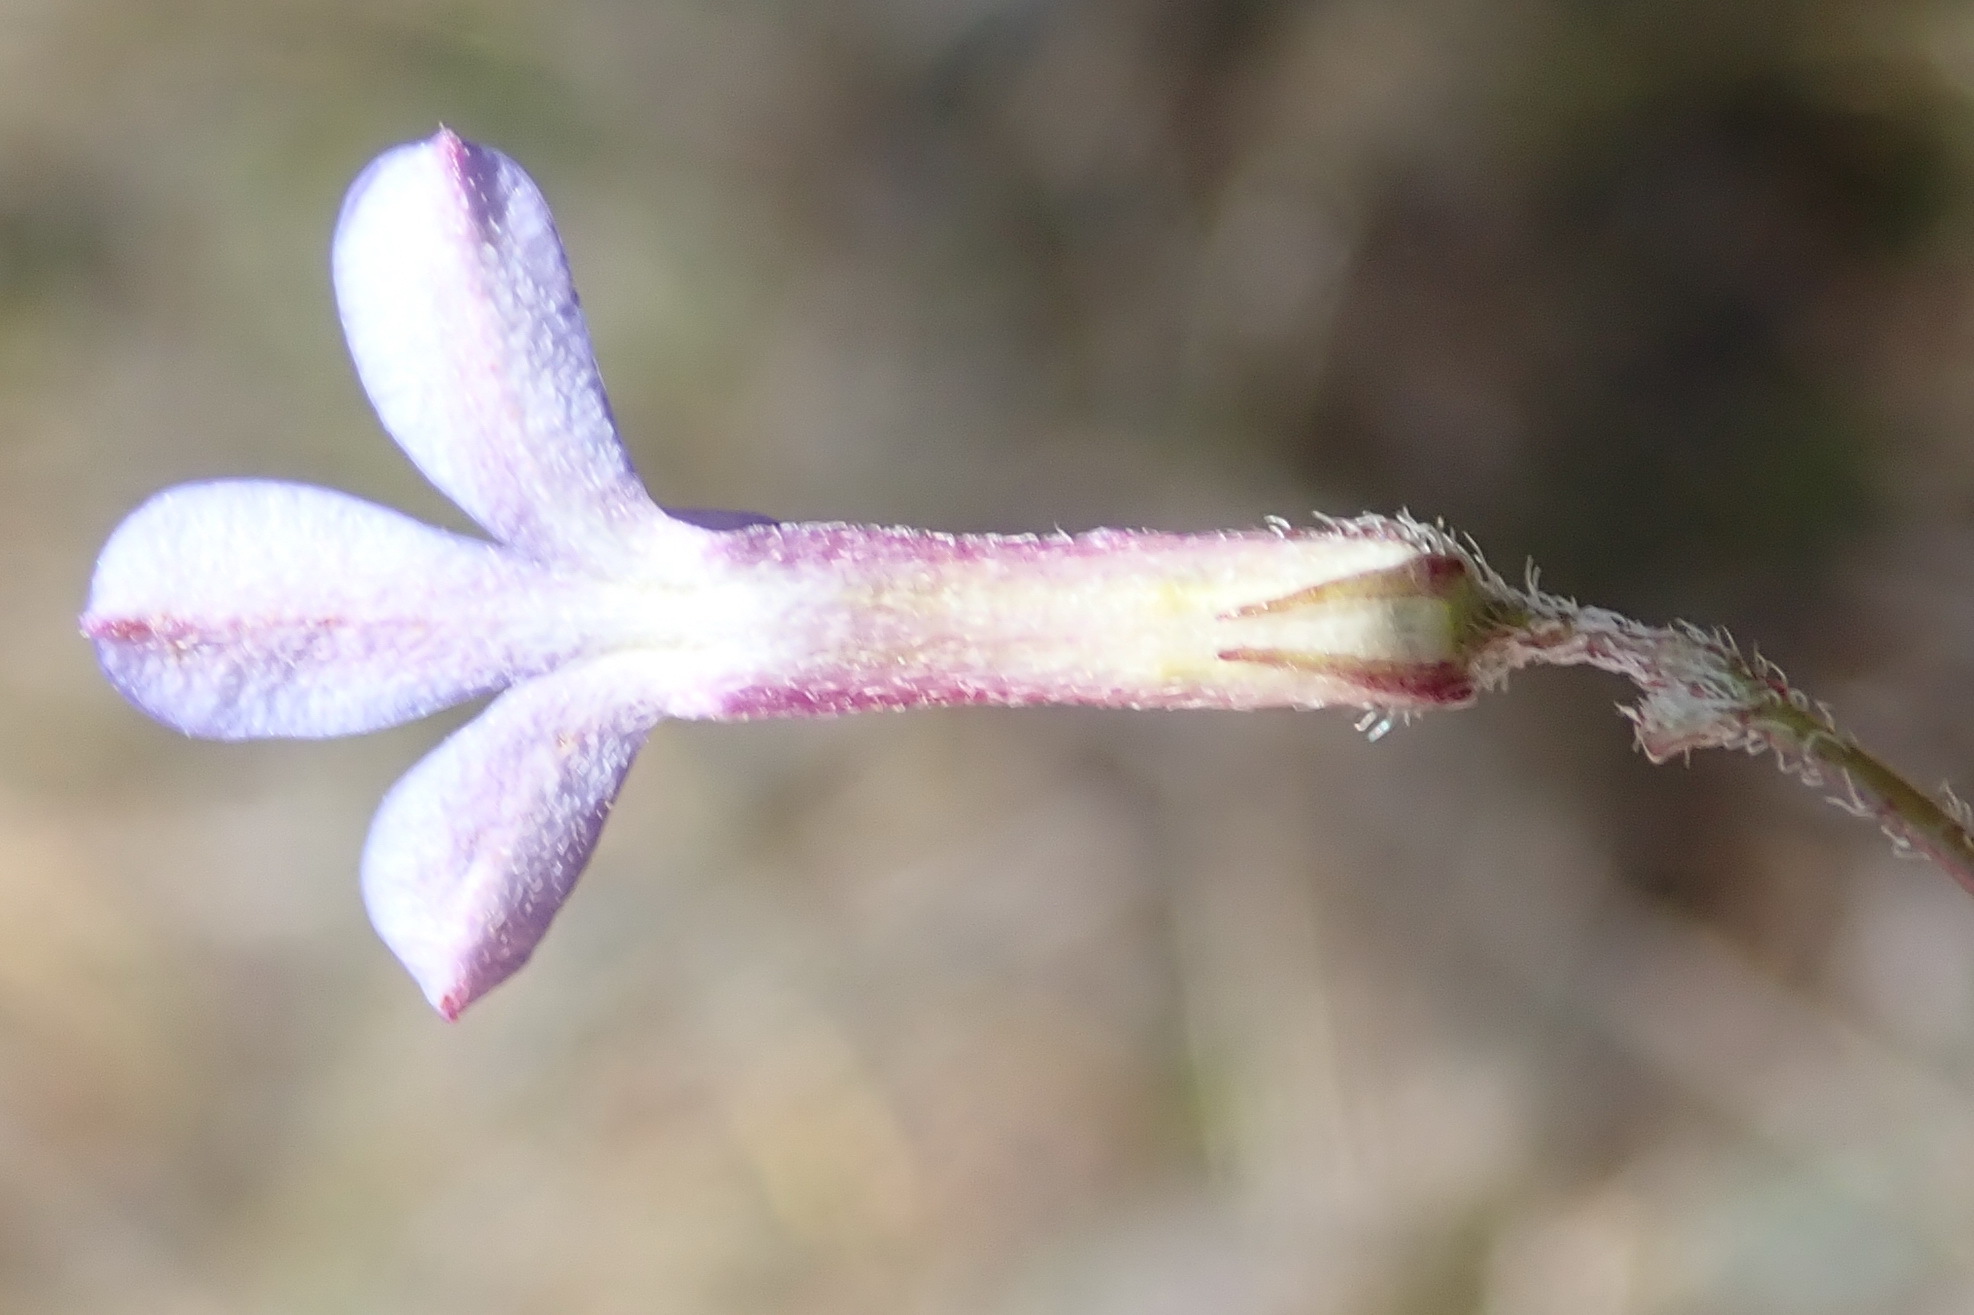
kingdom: Plantae
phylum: Tracheophyta
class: Magnoliopsida
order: Asterales
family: Campanulaceae
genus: Lobelia
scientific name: Lobelia neglecta
